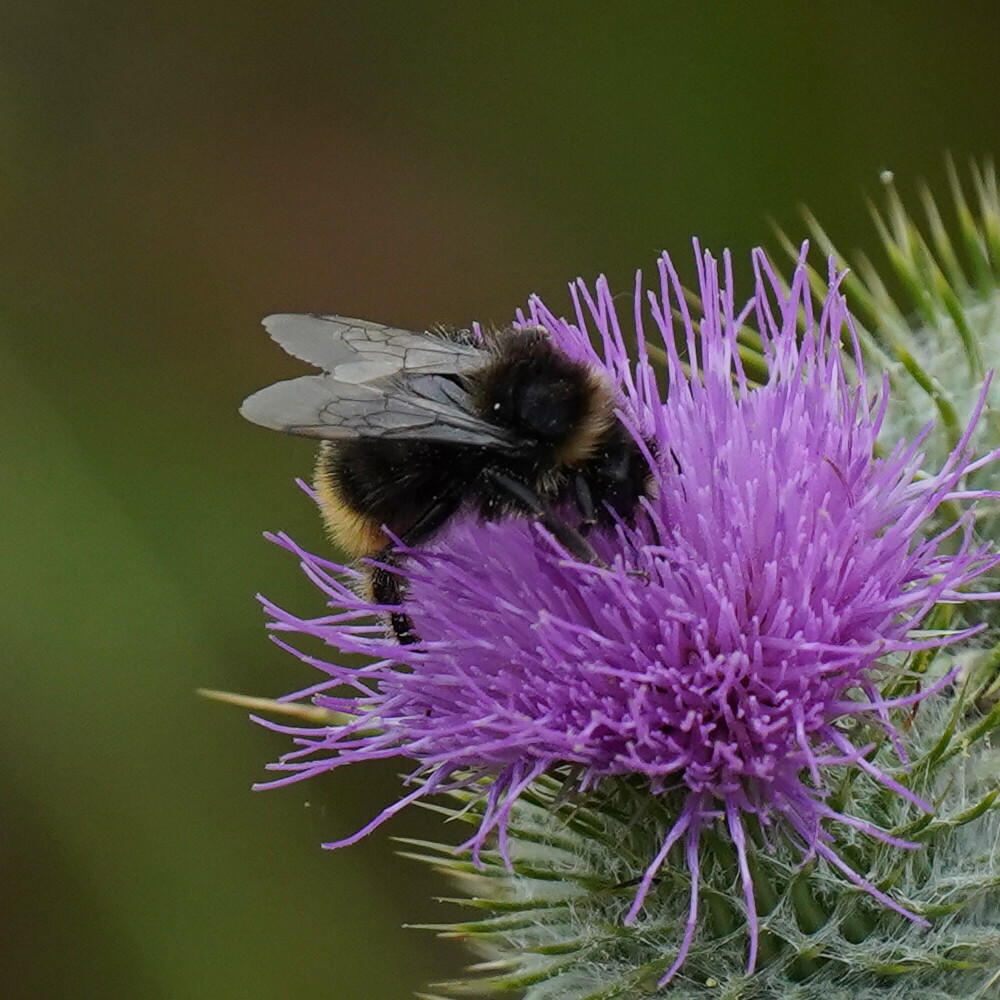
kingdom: Animalia
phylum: Arthropoda
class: Insecta
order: Hymenoptera
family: Apidae
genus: Bombus
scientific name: Bombus lapidarius
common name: Large red-tailed humble-bee
